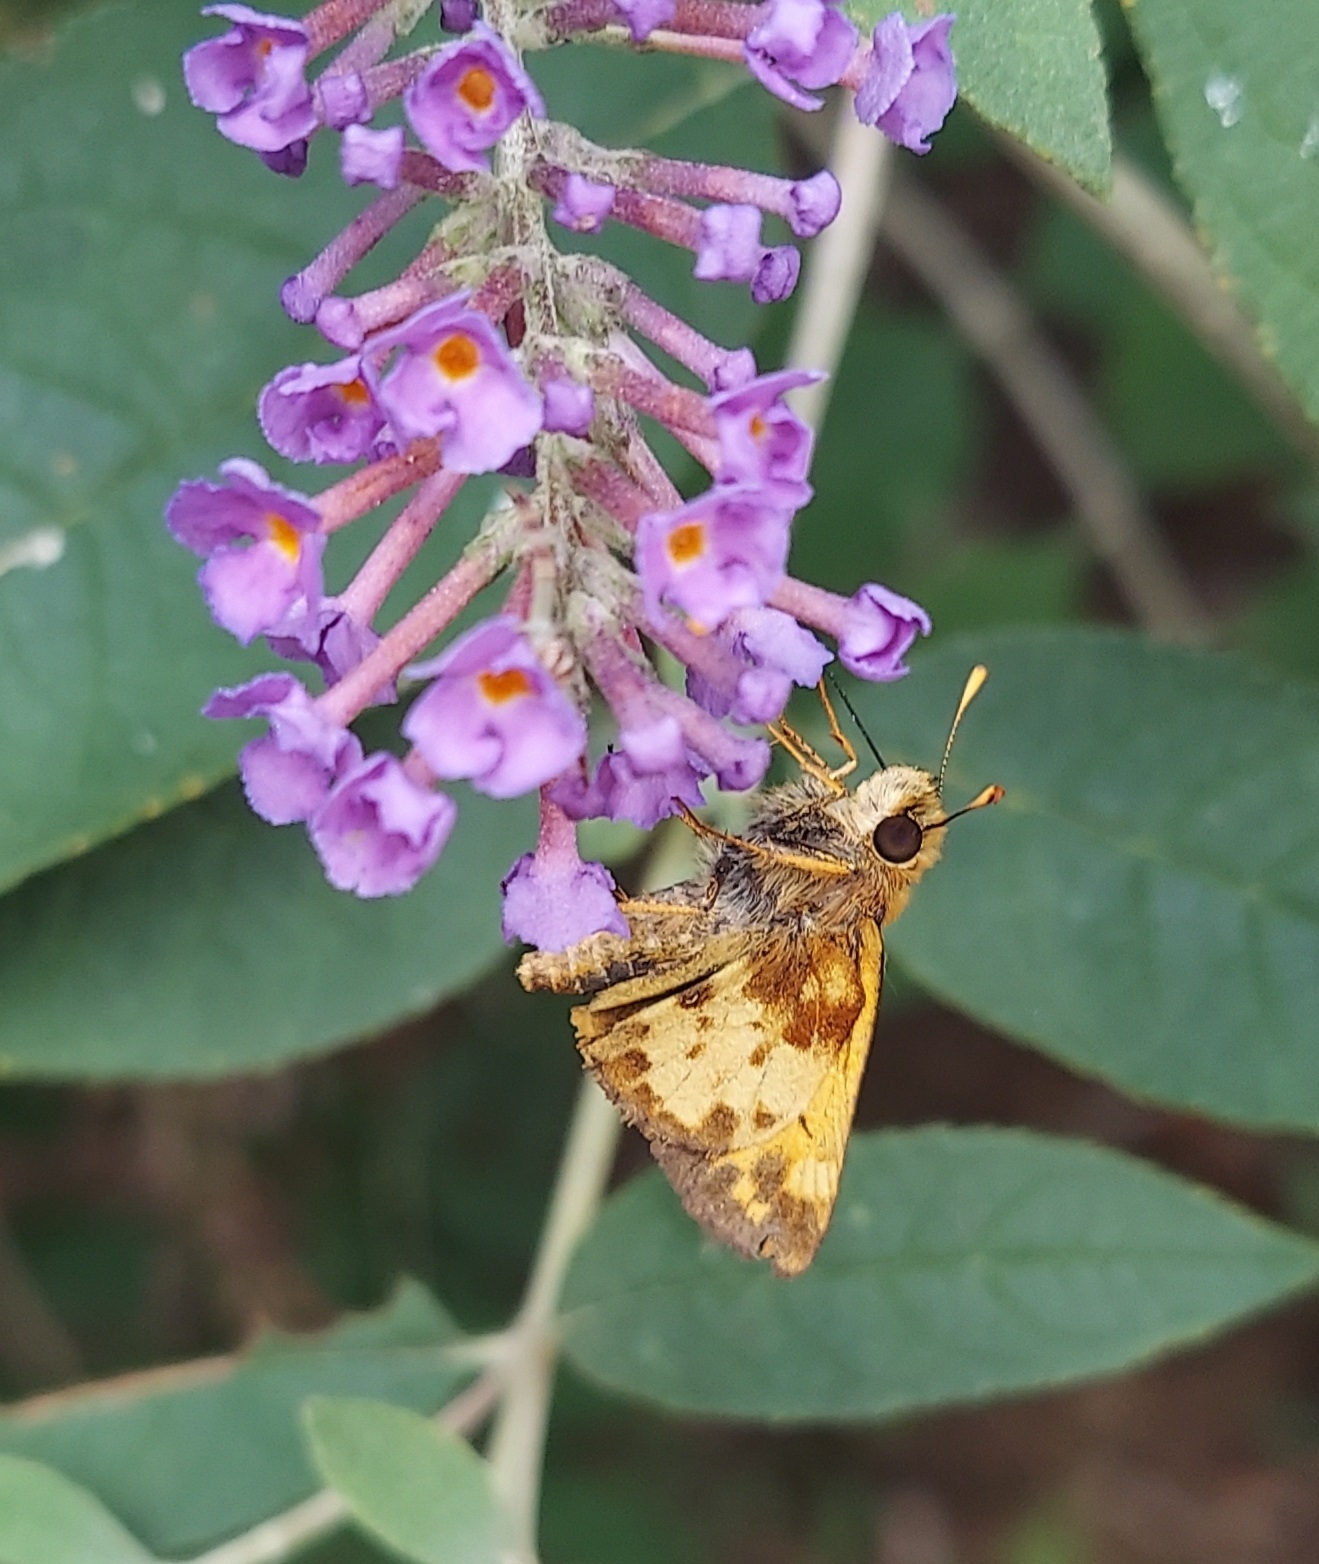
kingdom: Animalia
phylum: Arthropoda
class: Insecta
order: Lepidoptera
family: Hesperiidae
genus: Lon
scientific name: Lon zabulon
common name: Zabulon skipper
